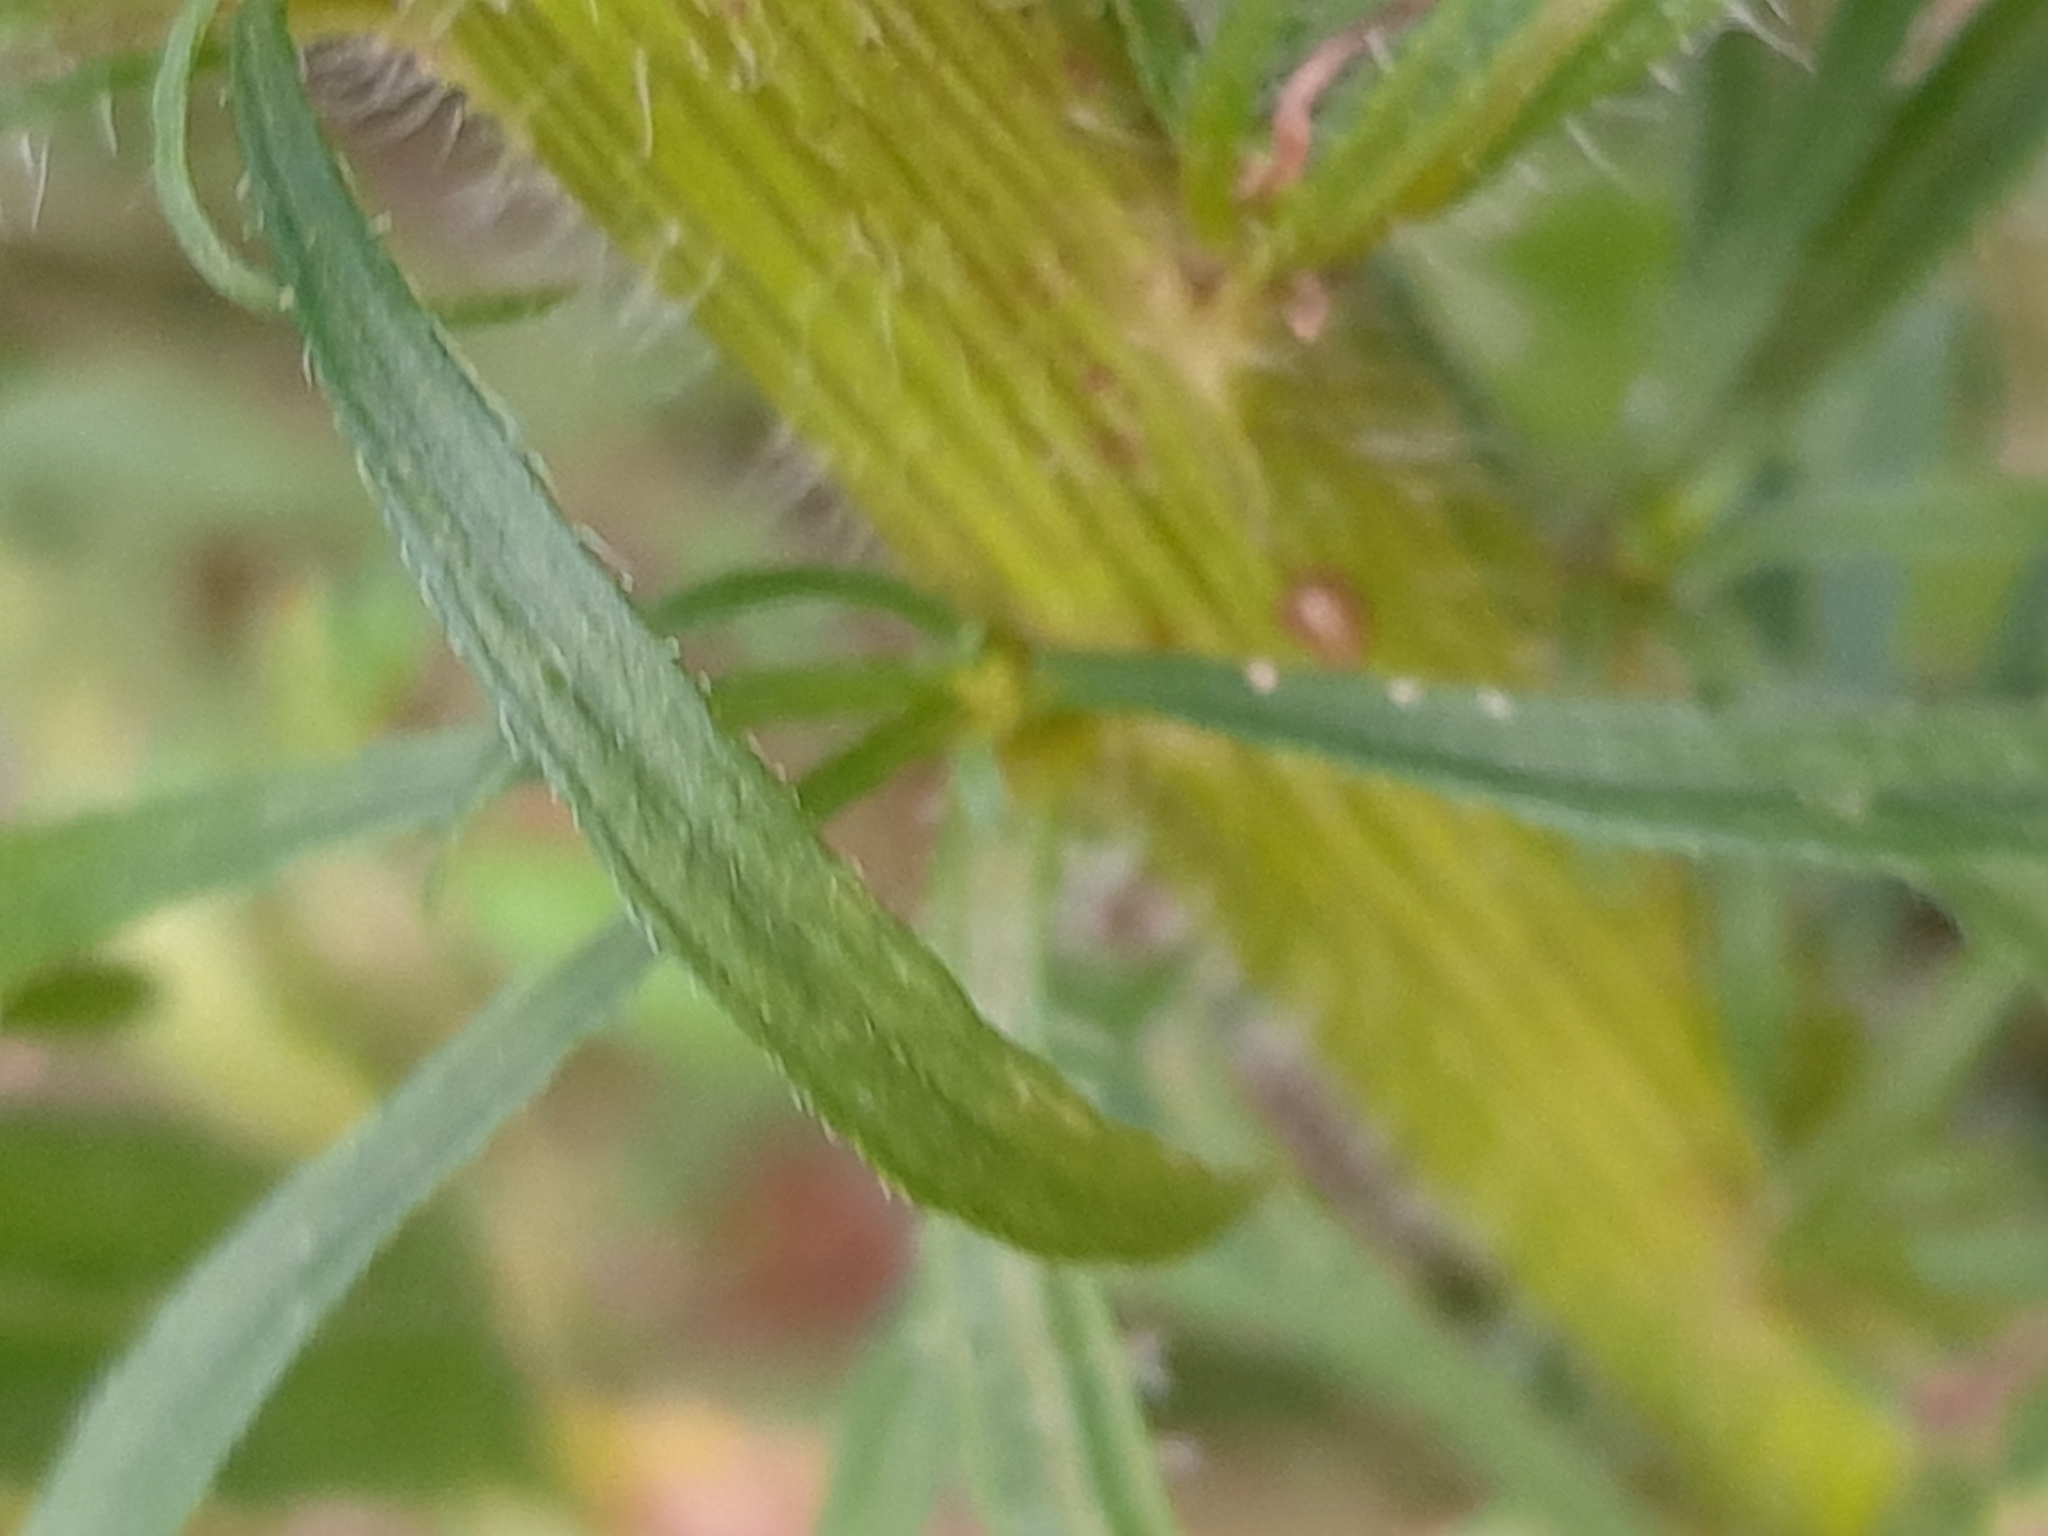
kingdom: Plantae
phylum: Tracheophyta
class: Magnoliopsida
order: Asterales
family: Asteraceae
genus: Erigeron
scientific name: Erigeron canadensis
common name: Canadian fleabane
